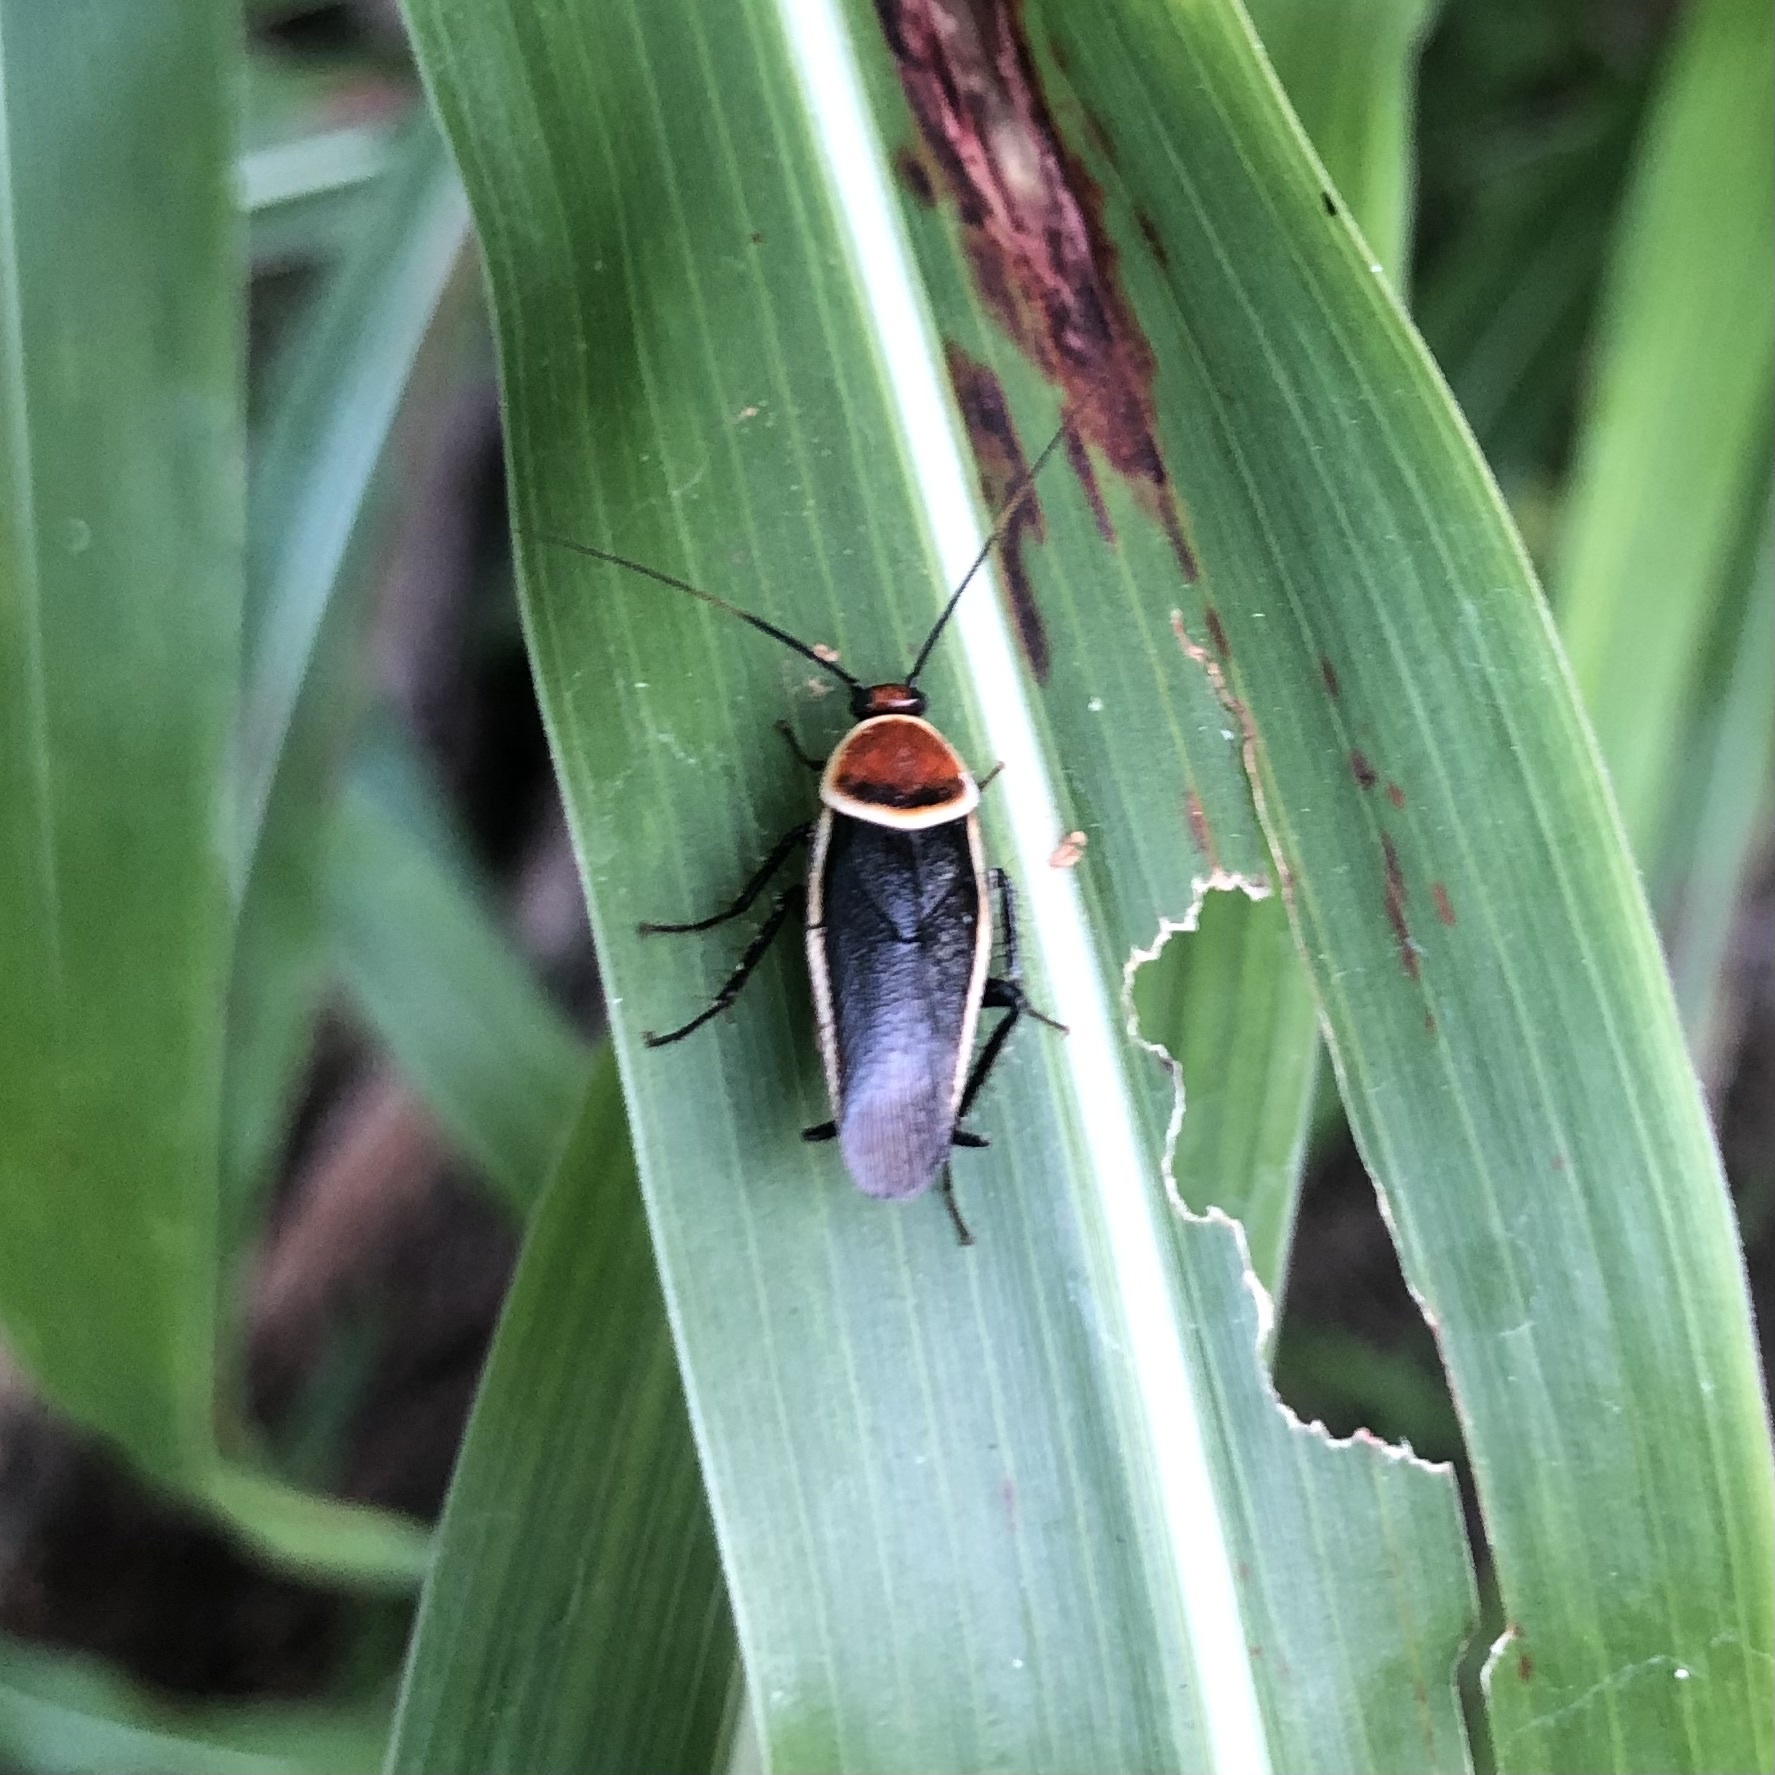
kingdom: Animalia
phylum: Arthropoda
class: Insecta
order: Blattodea
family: Ectobiidae
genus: Pseudomops
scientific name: Pseudomops septentrionalis
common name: Pale-bordered field cockroach
